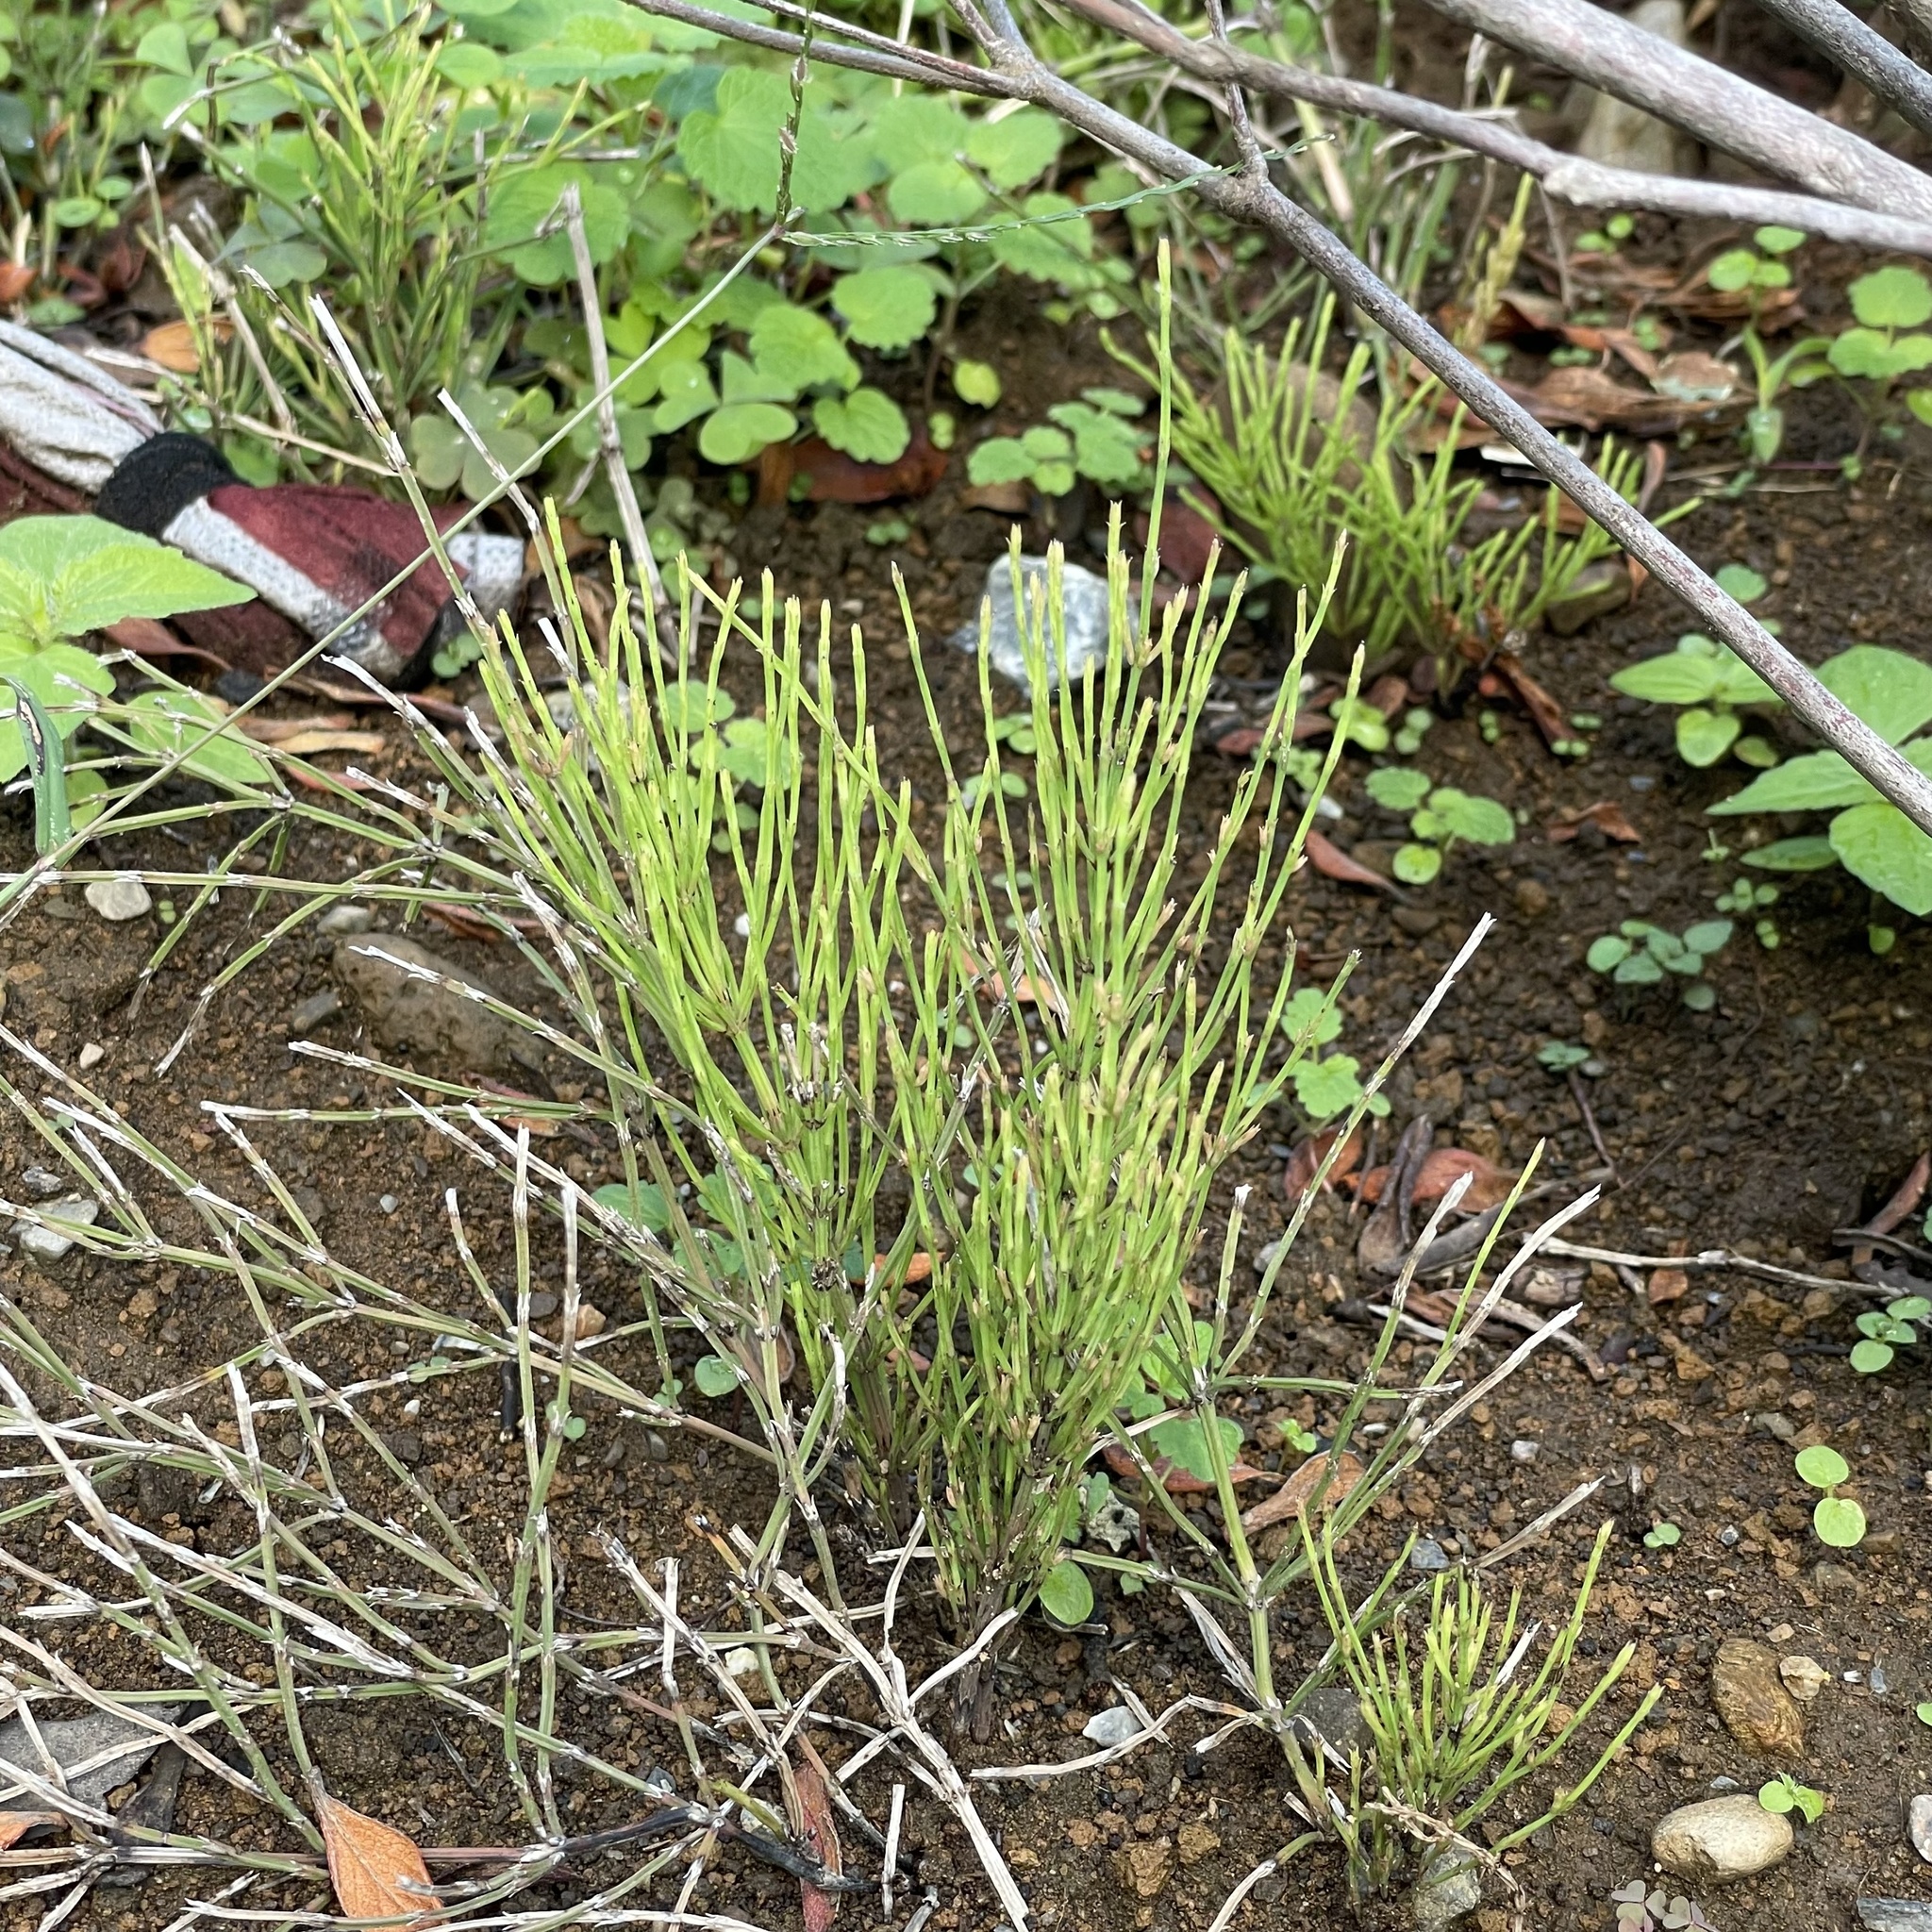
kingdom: Plantae
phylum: Tracheophyta
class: Polypodiopsida
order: Equisetales
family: Equisetaceae
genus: Equisetum
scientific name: Equisetum arvense
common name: Field horsetail
